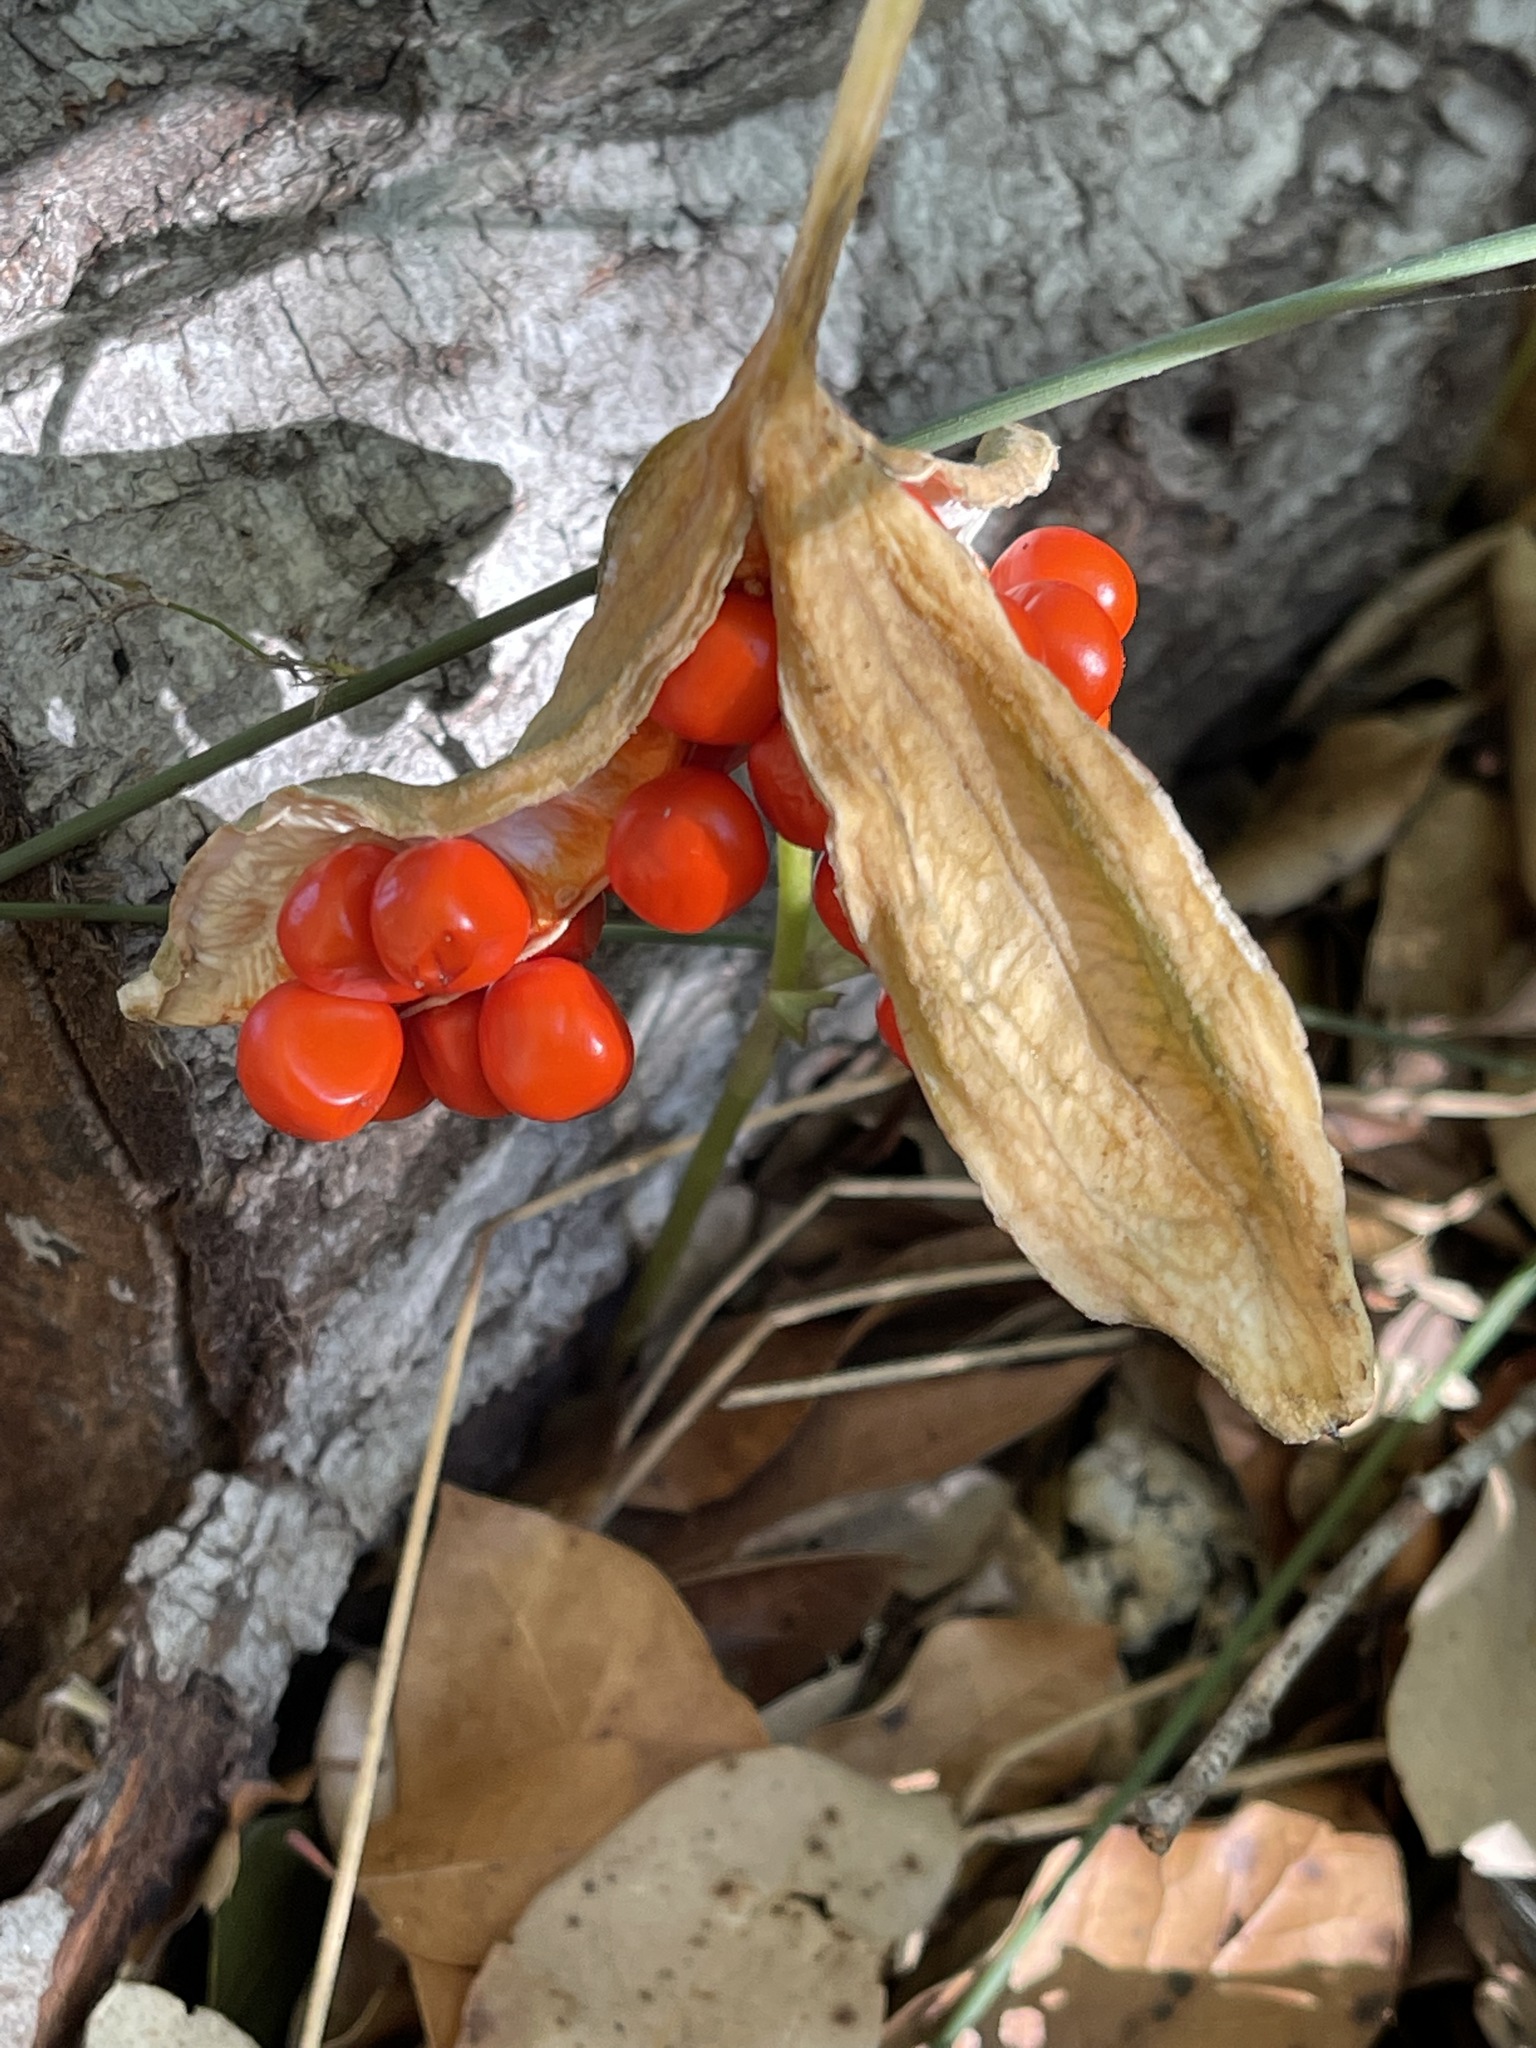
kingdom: Plantae
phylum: Tracheophyta
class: Liliopsida
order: Asparagales
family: Iridaceae
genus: Iris
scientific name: Iris foetidissima
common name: Stinking iris
